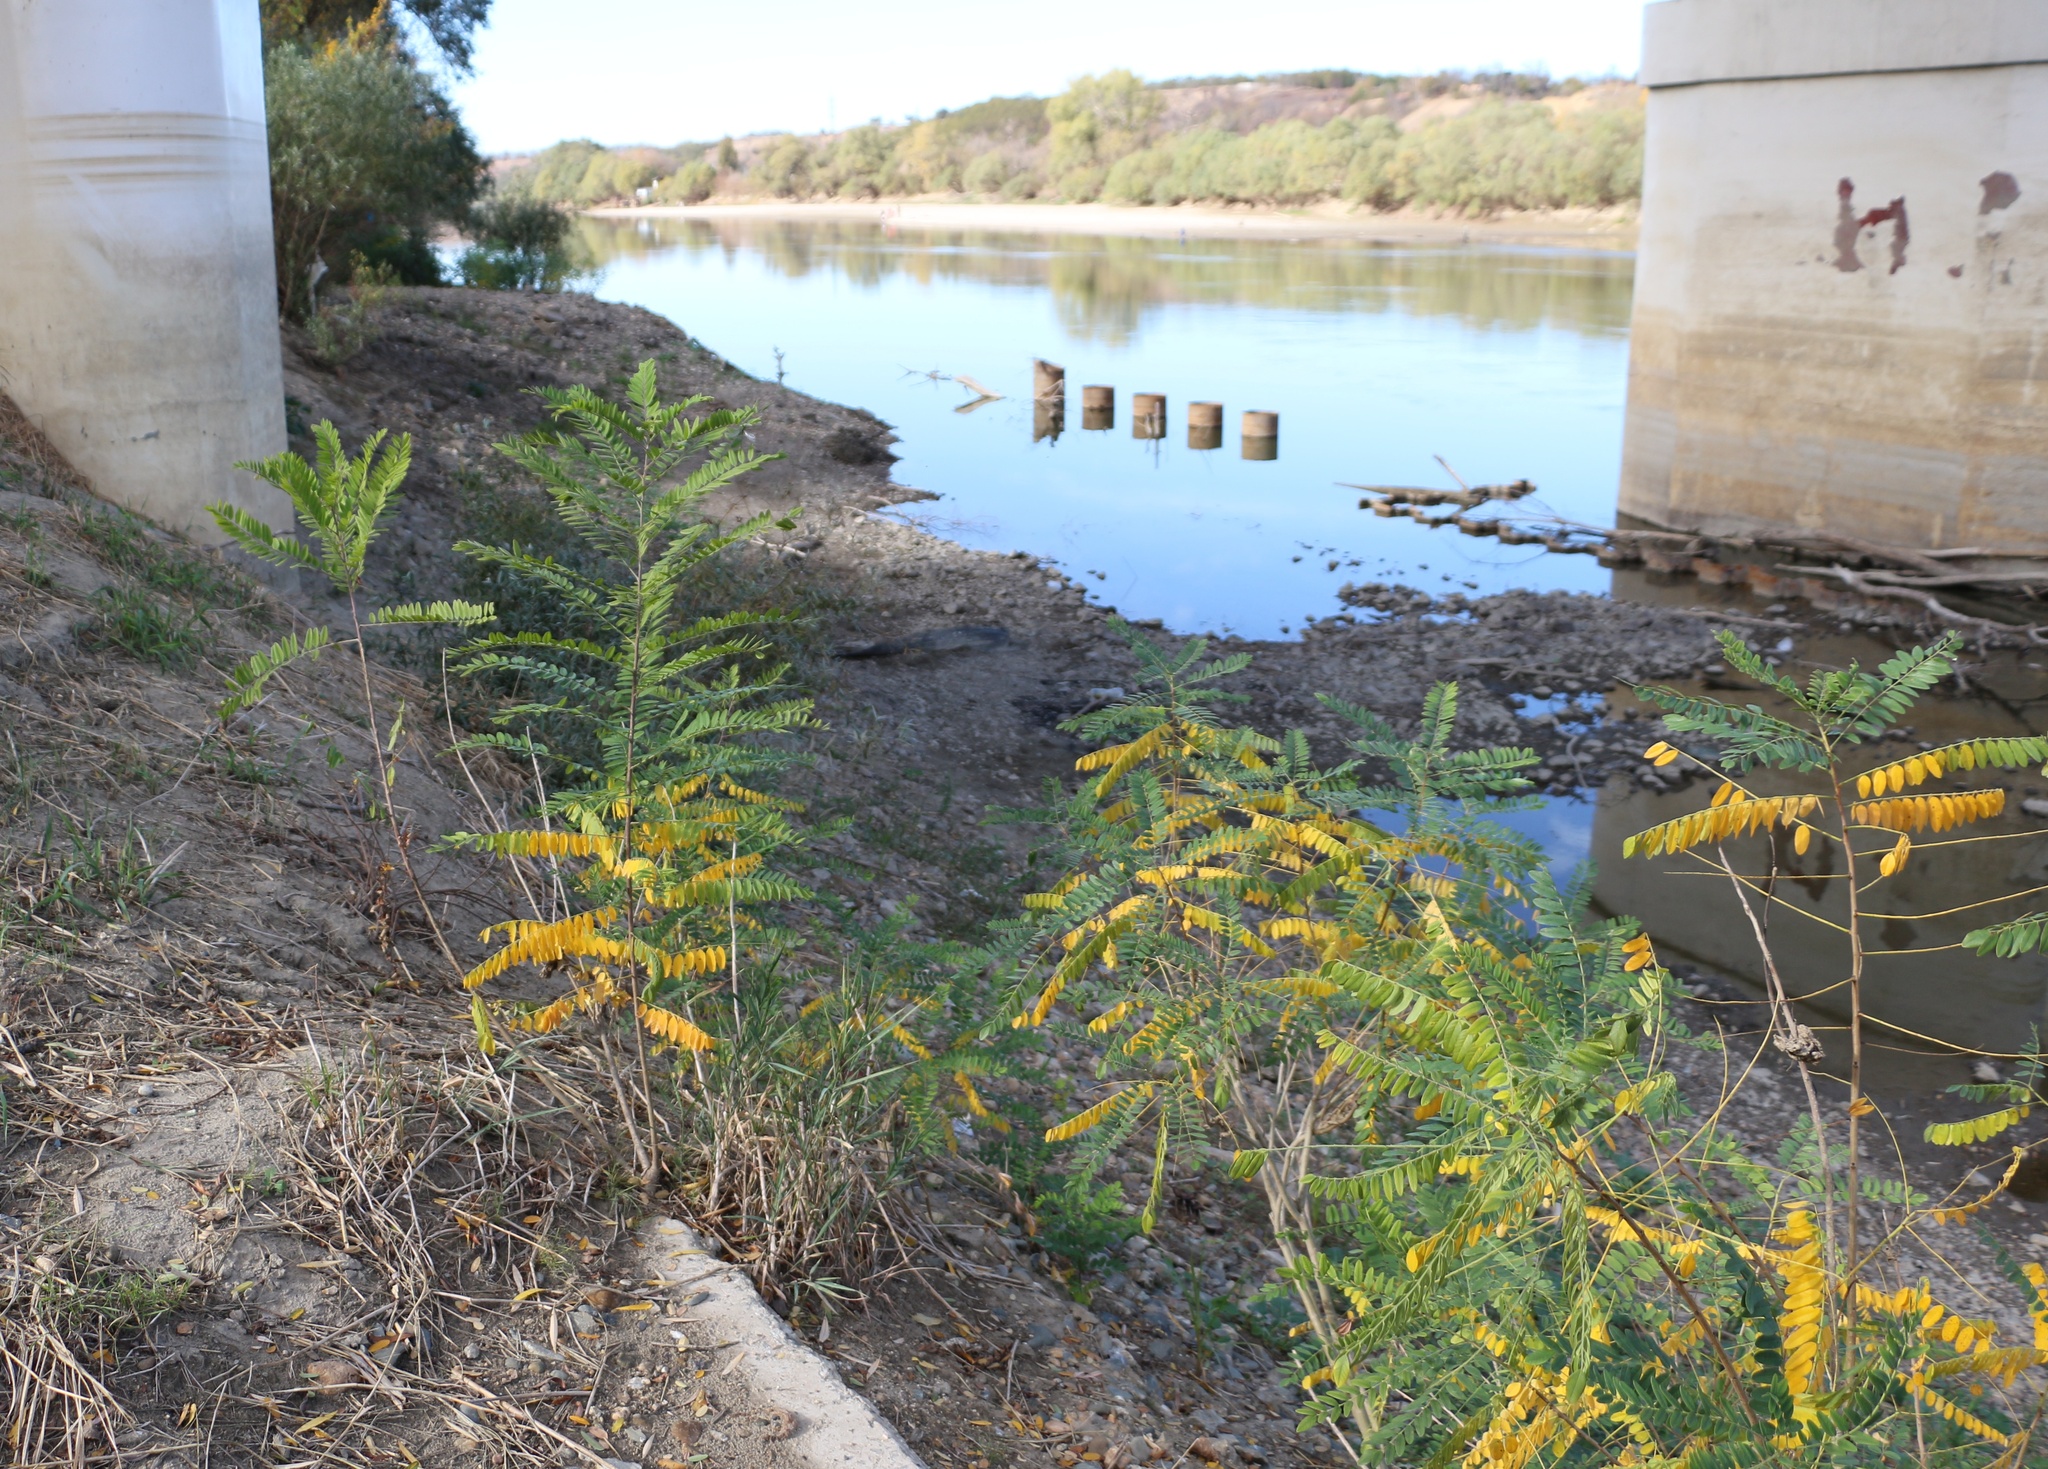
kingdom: Plantae
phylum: Tracheophyta
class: Magnoliopsida
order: Fabales
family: Fabaceae
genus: Amorpha
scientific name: Amorpha fruticosa
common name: False indigo
